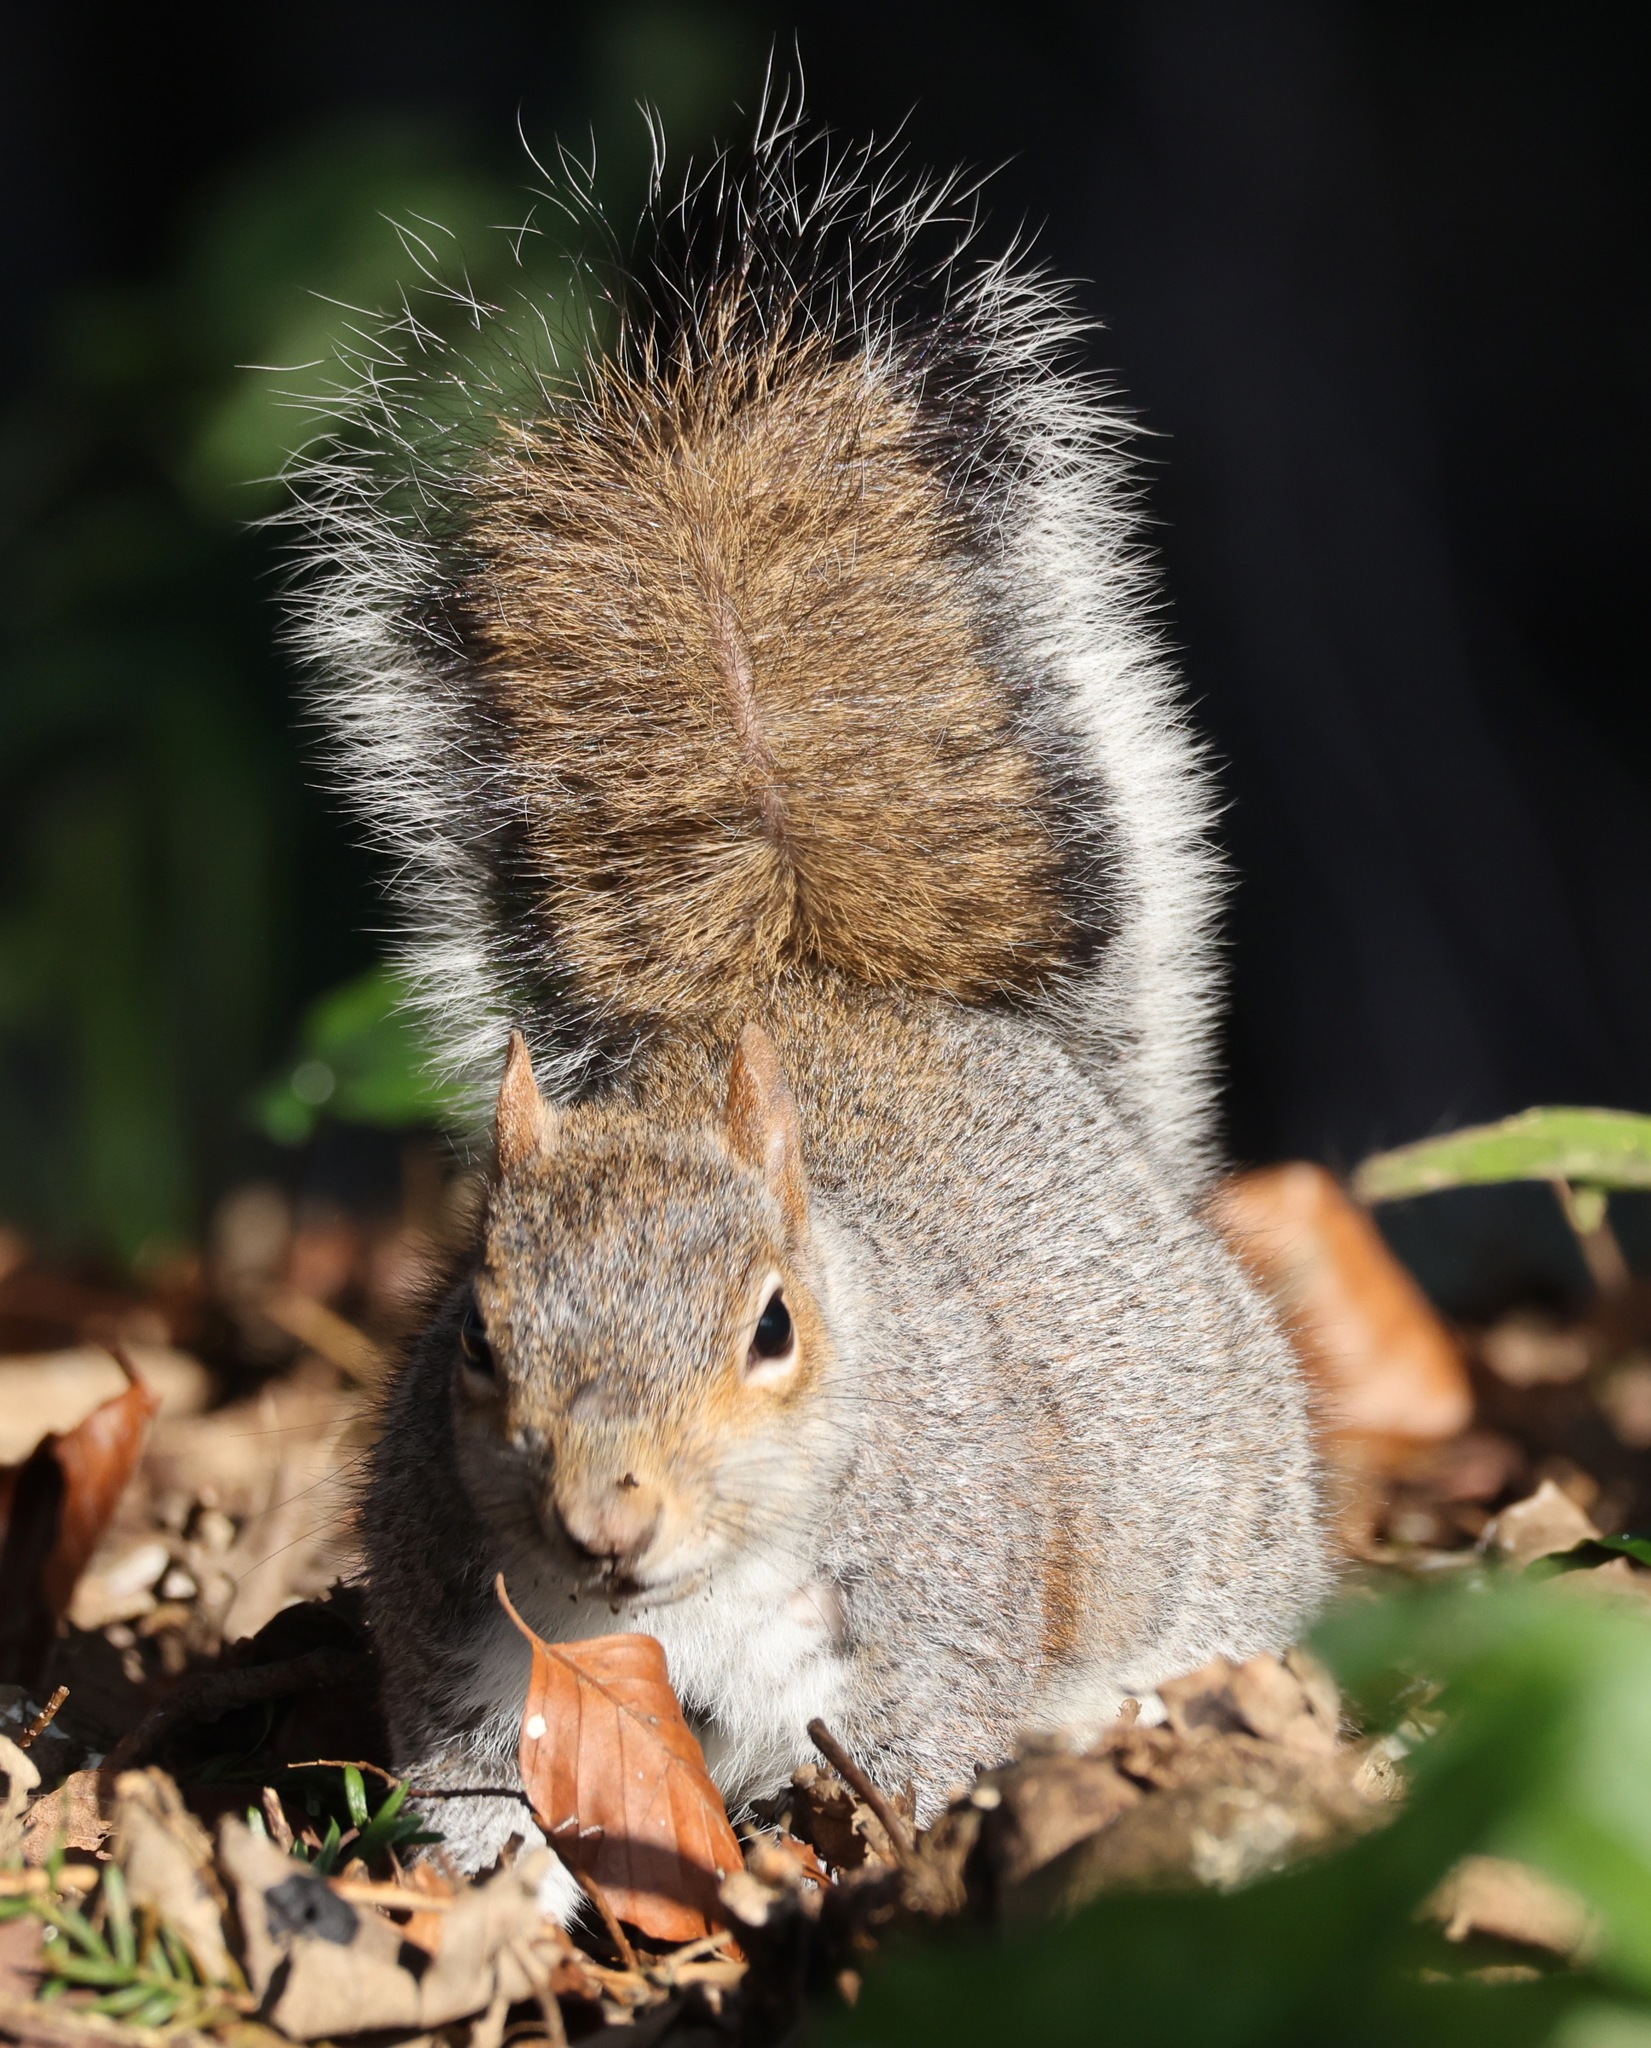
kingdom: Animalia
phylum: Chordata
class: Mammalia
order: Rodentia
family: Sciuridae
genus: Sciurus
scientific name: Sciurus carolinensis
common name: Eastern gray squirrel
